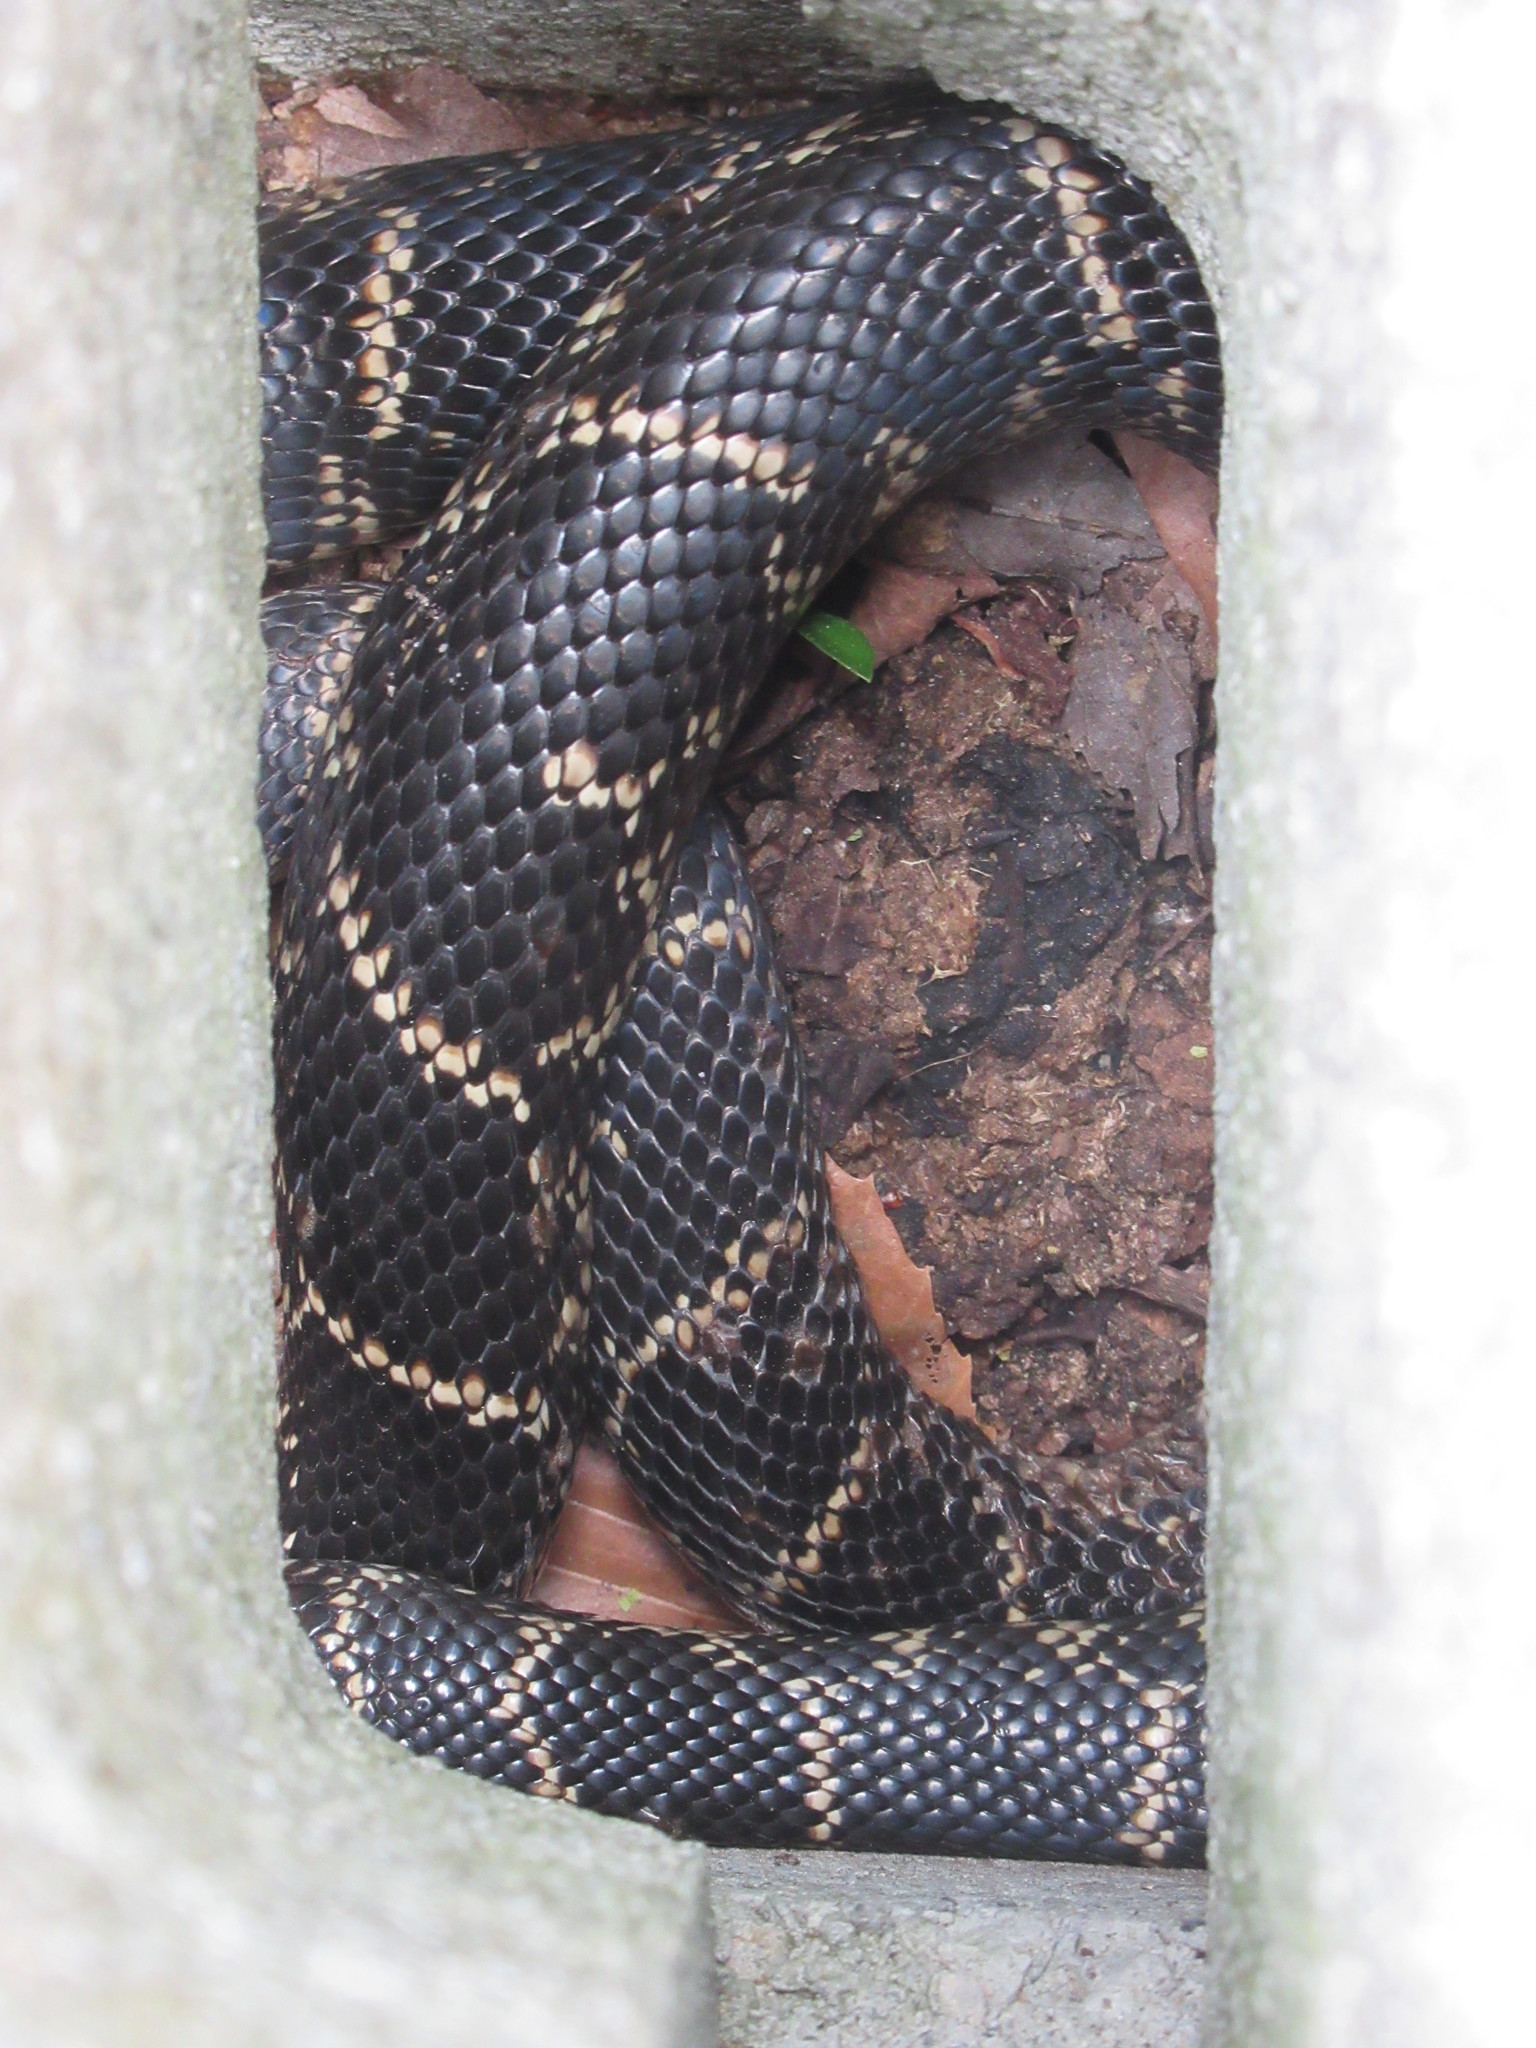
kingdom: Animalia
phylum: Chordata
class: Squamata
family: Colubridae
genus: Lampropeltis
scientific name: Lampropeltis getula
